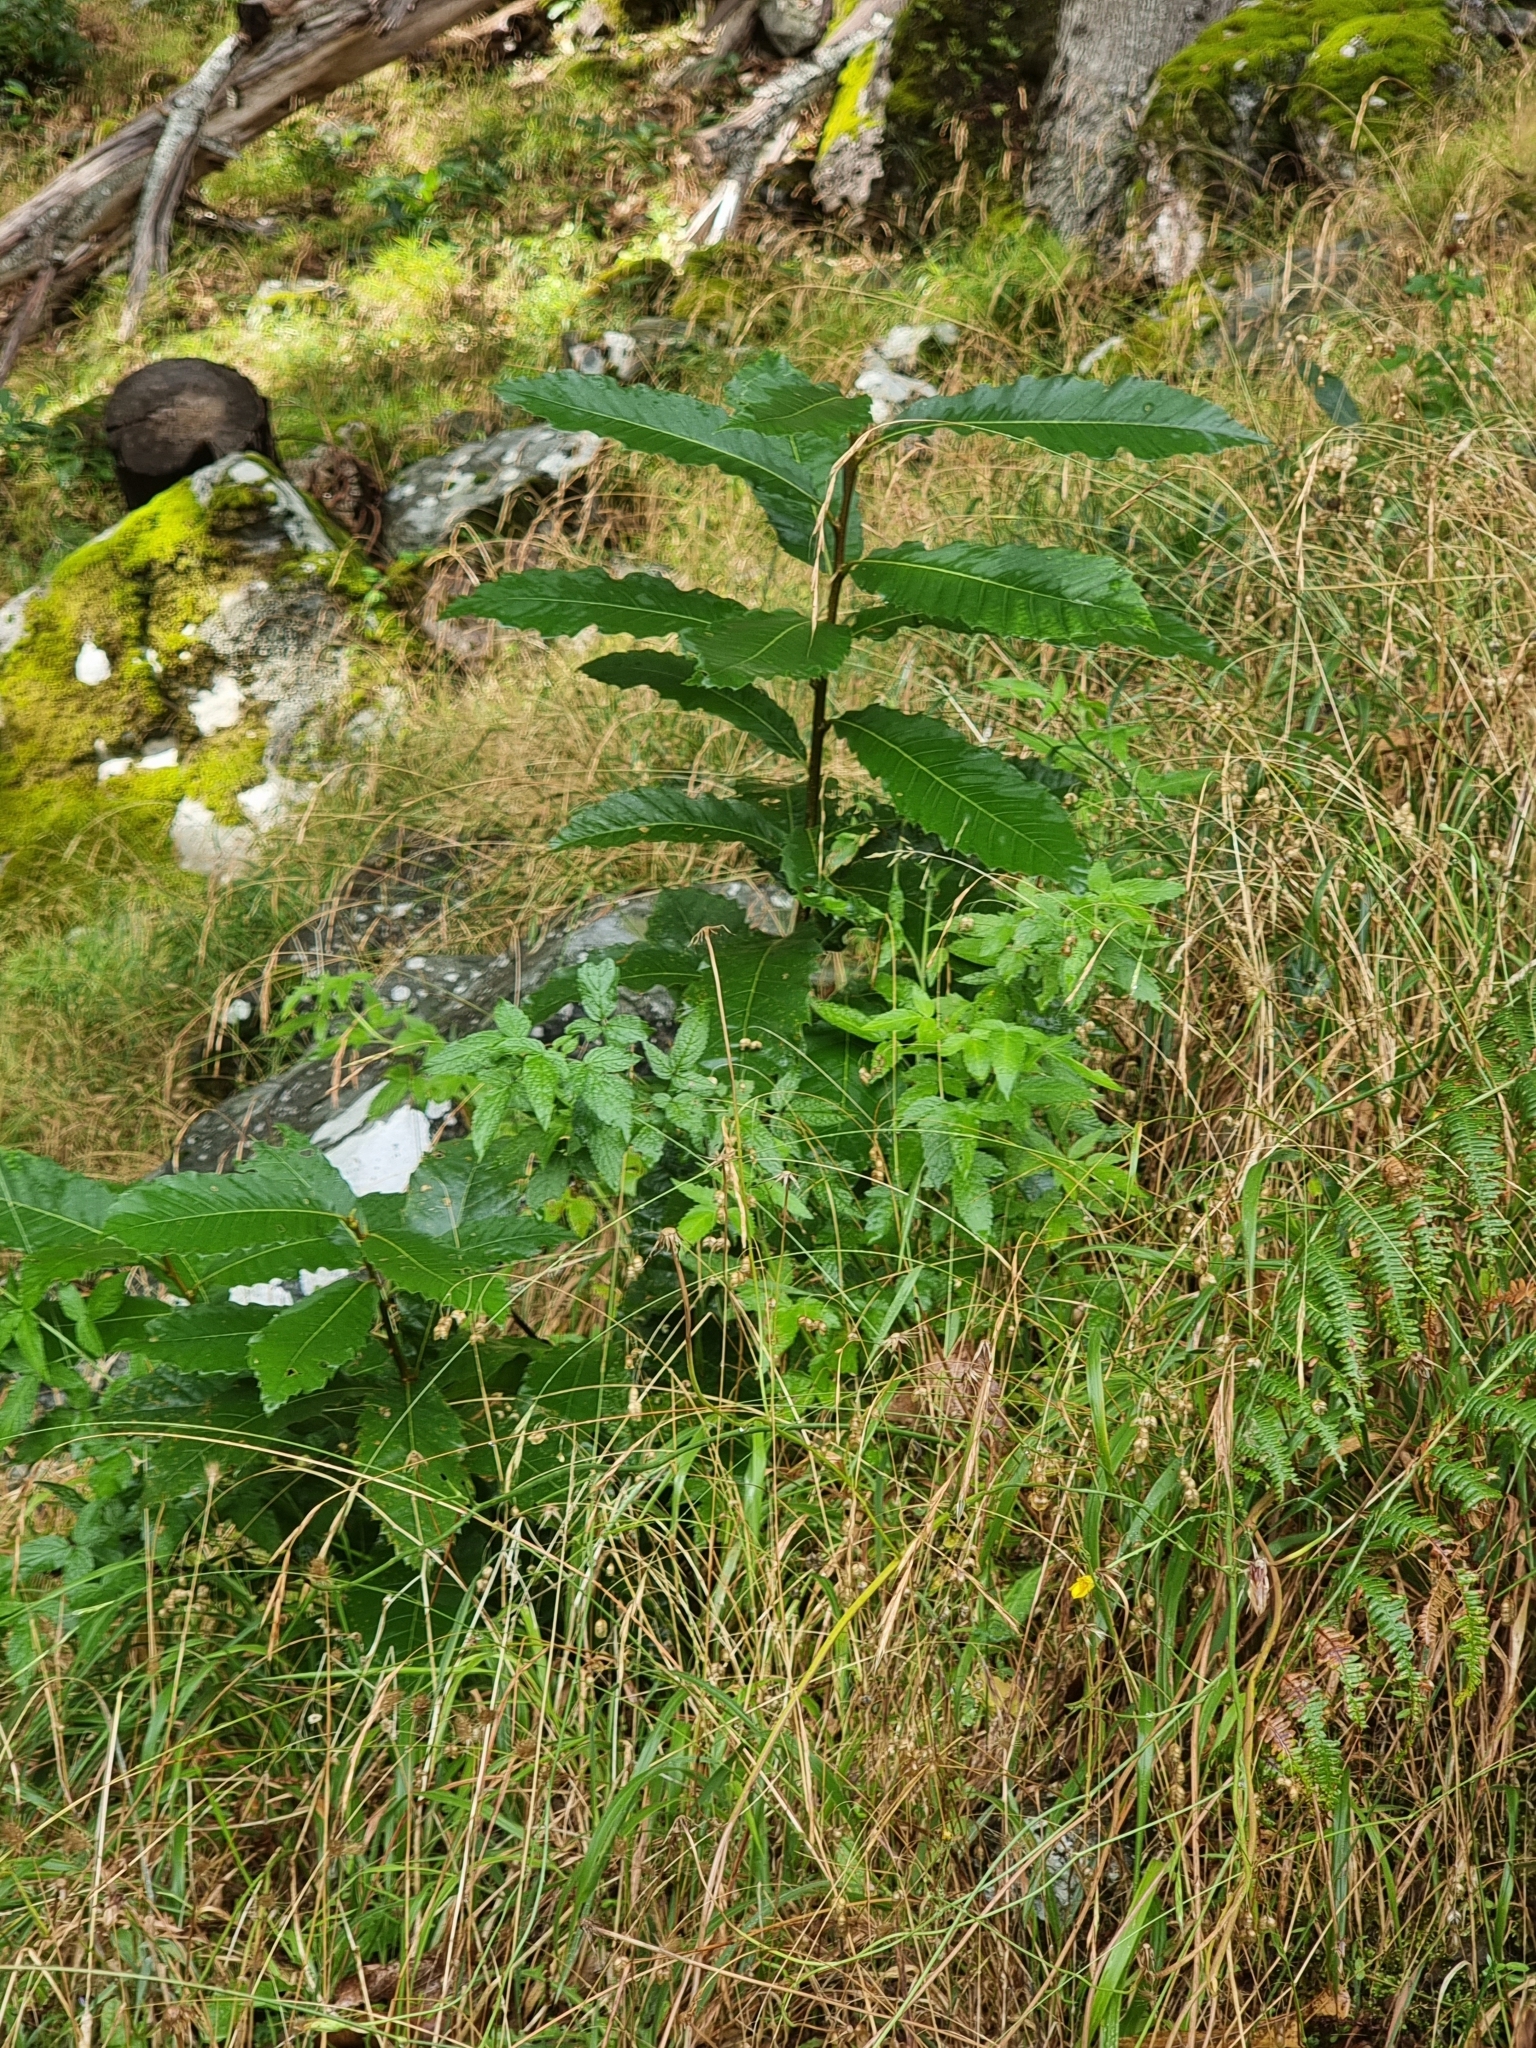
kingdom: Plantae
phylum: Tracheophyta
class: Magnoliopsida
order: Fagales
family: Fagaceae
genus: Castanea
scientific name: Castanea sativa
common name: Sweet chestnut
